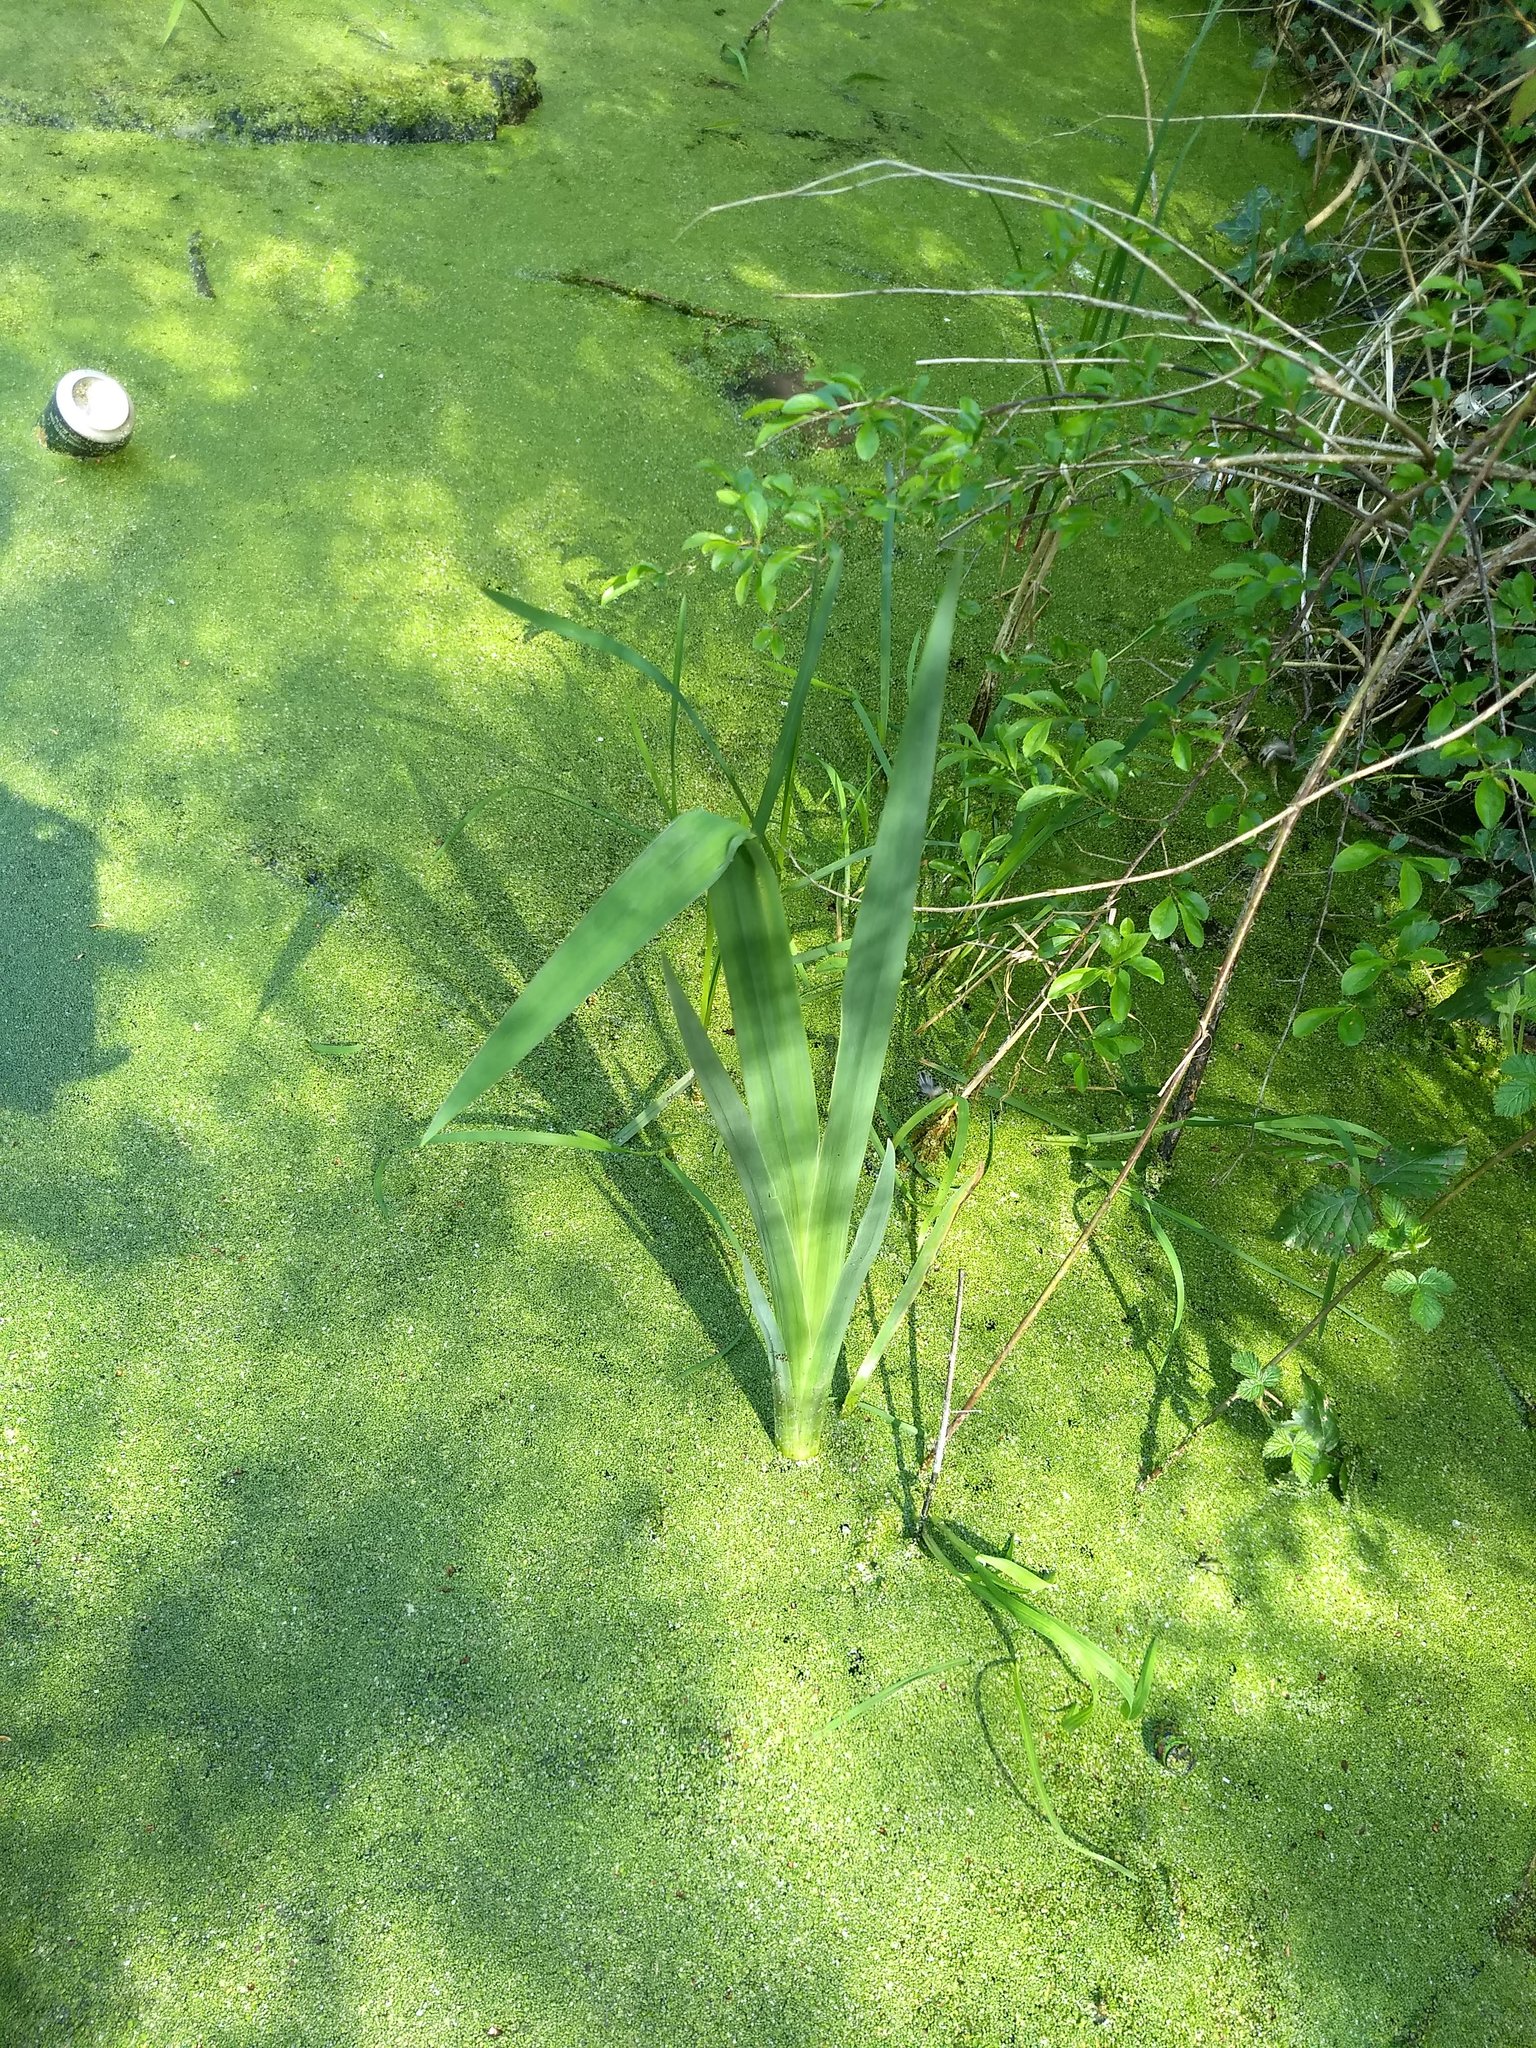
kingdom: Plantae
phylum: Tracheophyta
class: Liliopsida
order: Asparagales
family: Iridaceae
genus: Iris
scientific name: Iris pseudacorus
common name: Yellow flag
